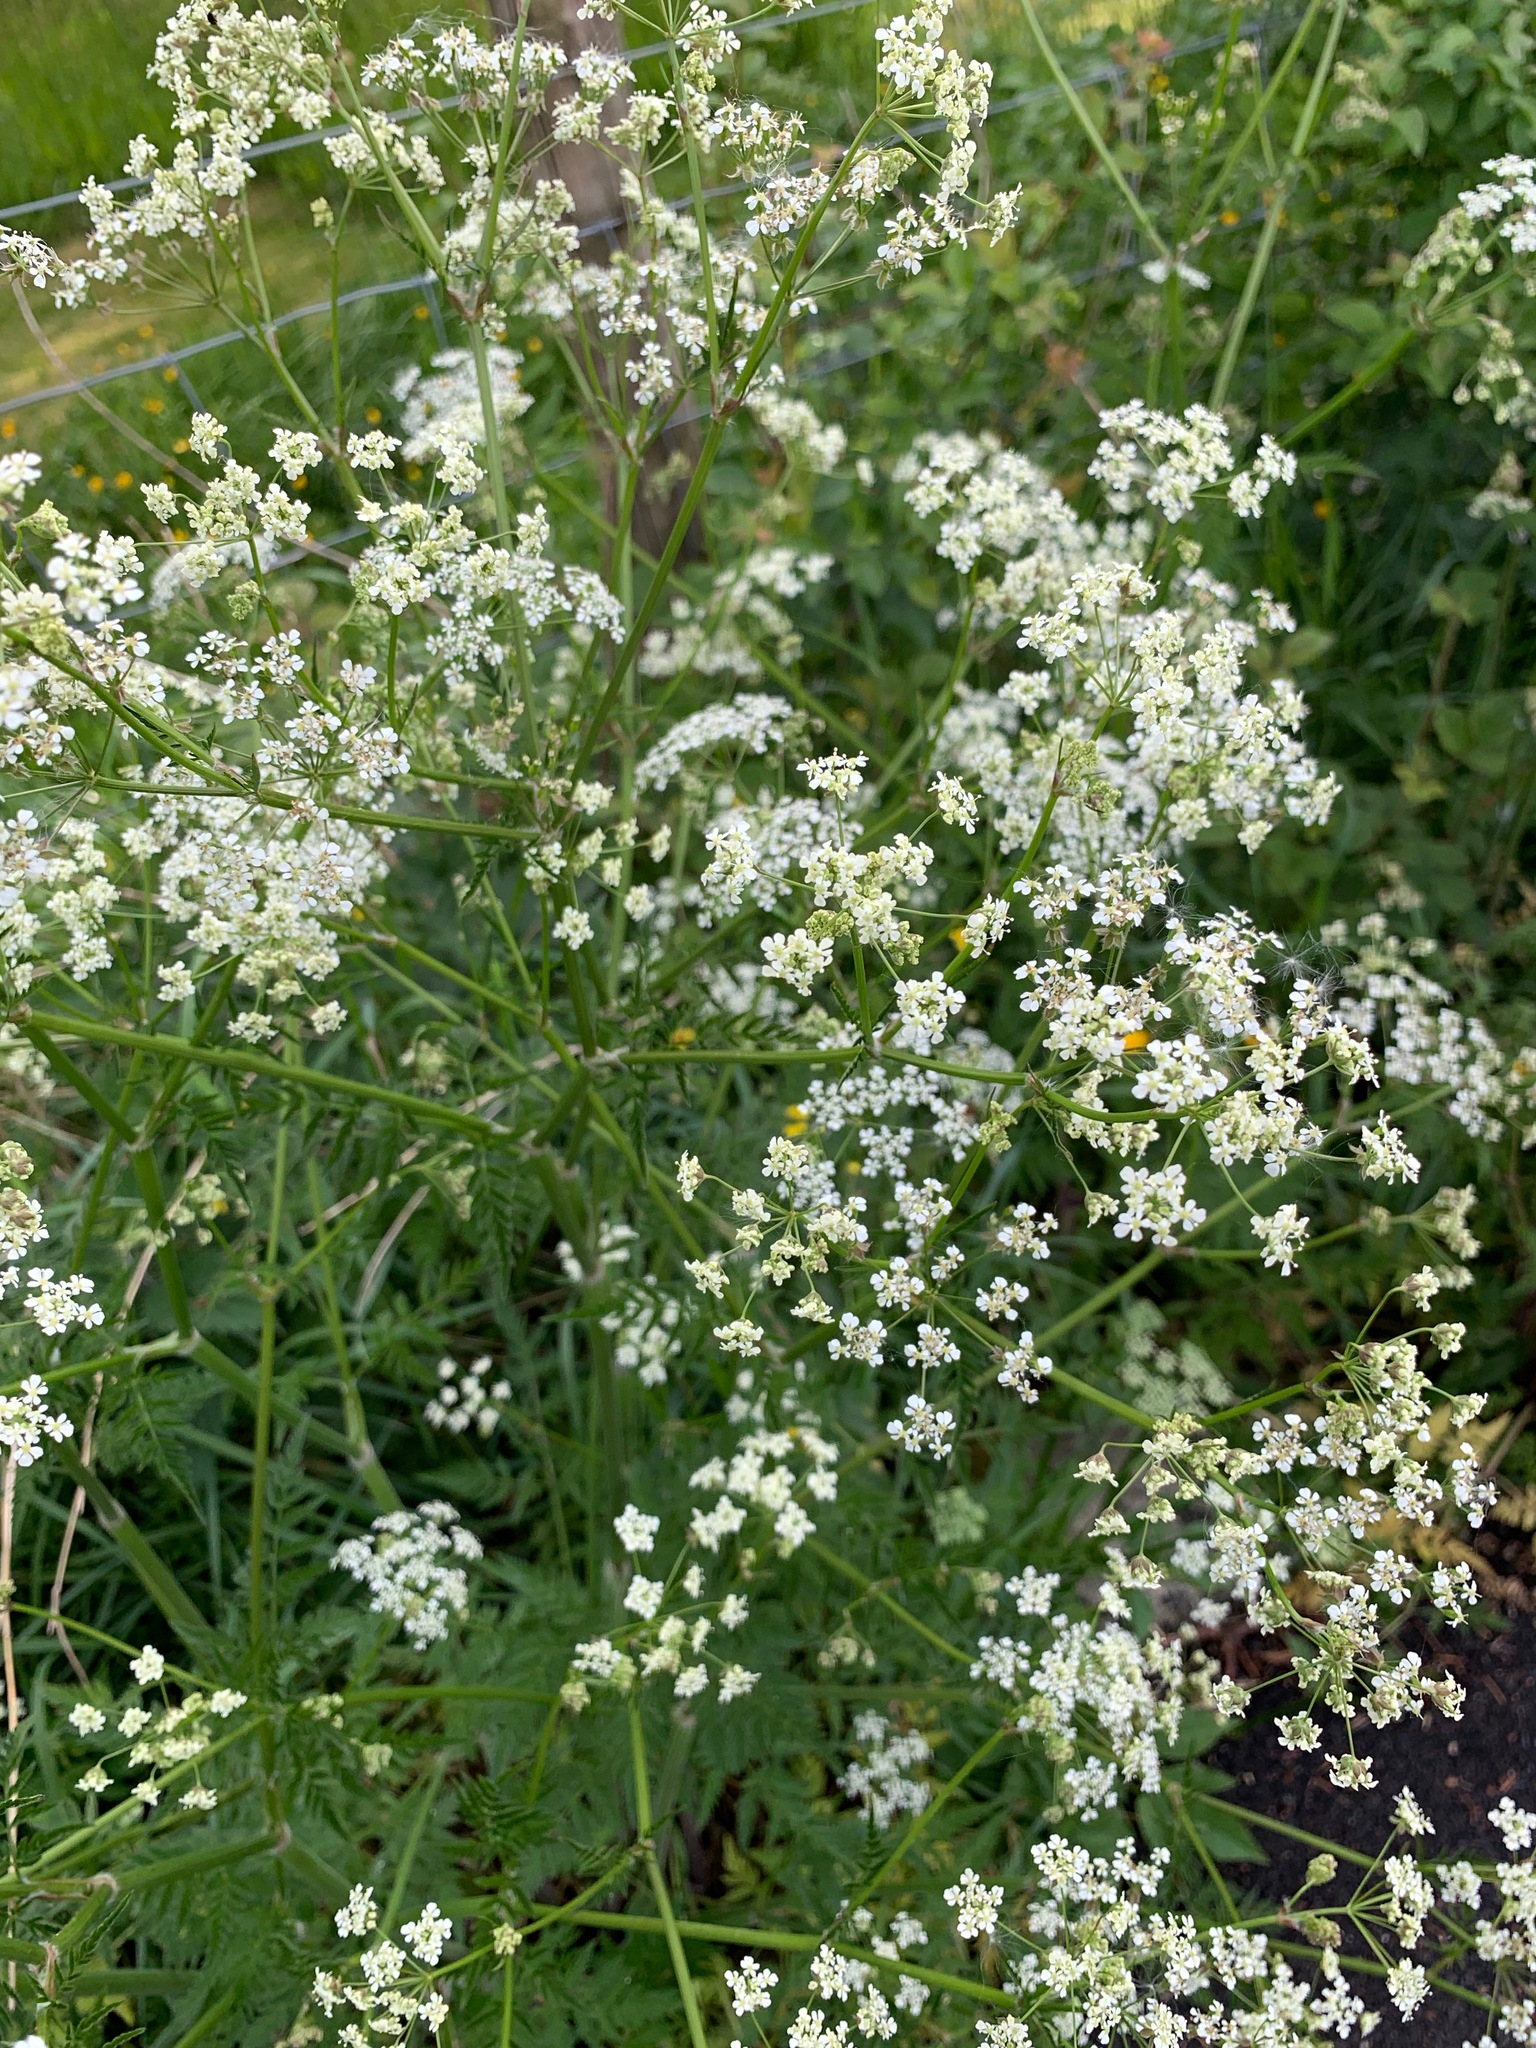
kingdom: Plantae
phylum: Tracheophyta
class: Magnoliopsida
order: Apiales
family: Apiaceae
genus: Anthriscus
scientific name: Anthriscus sylvestris
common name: Cow parsley
